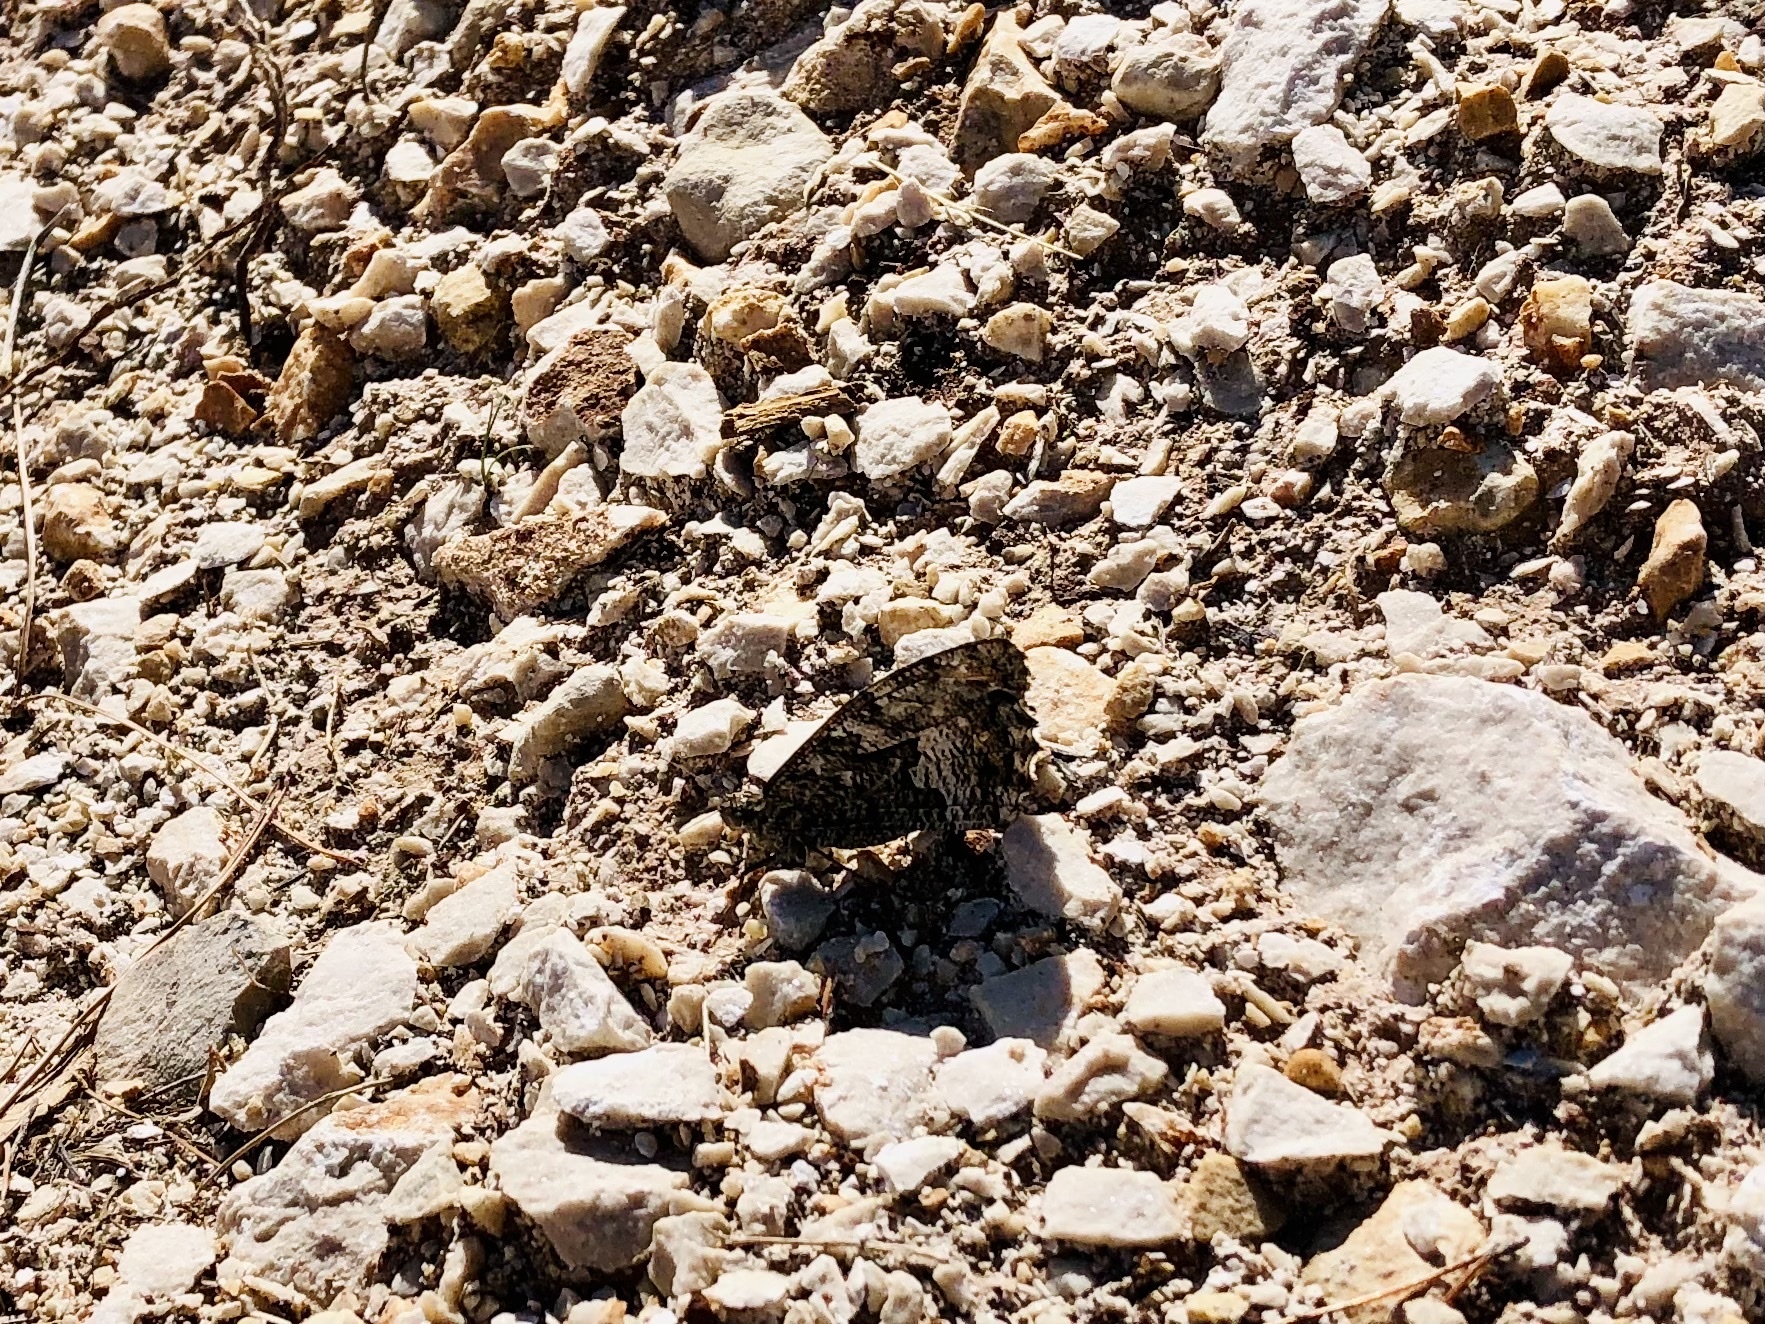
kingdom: Animalia
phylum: Arthropoda
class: Insecta
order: Lepidoptera
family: Nymphalidae
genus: Hipparchia
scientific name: Hipparchia semele
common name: Grayling
